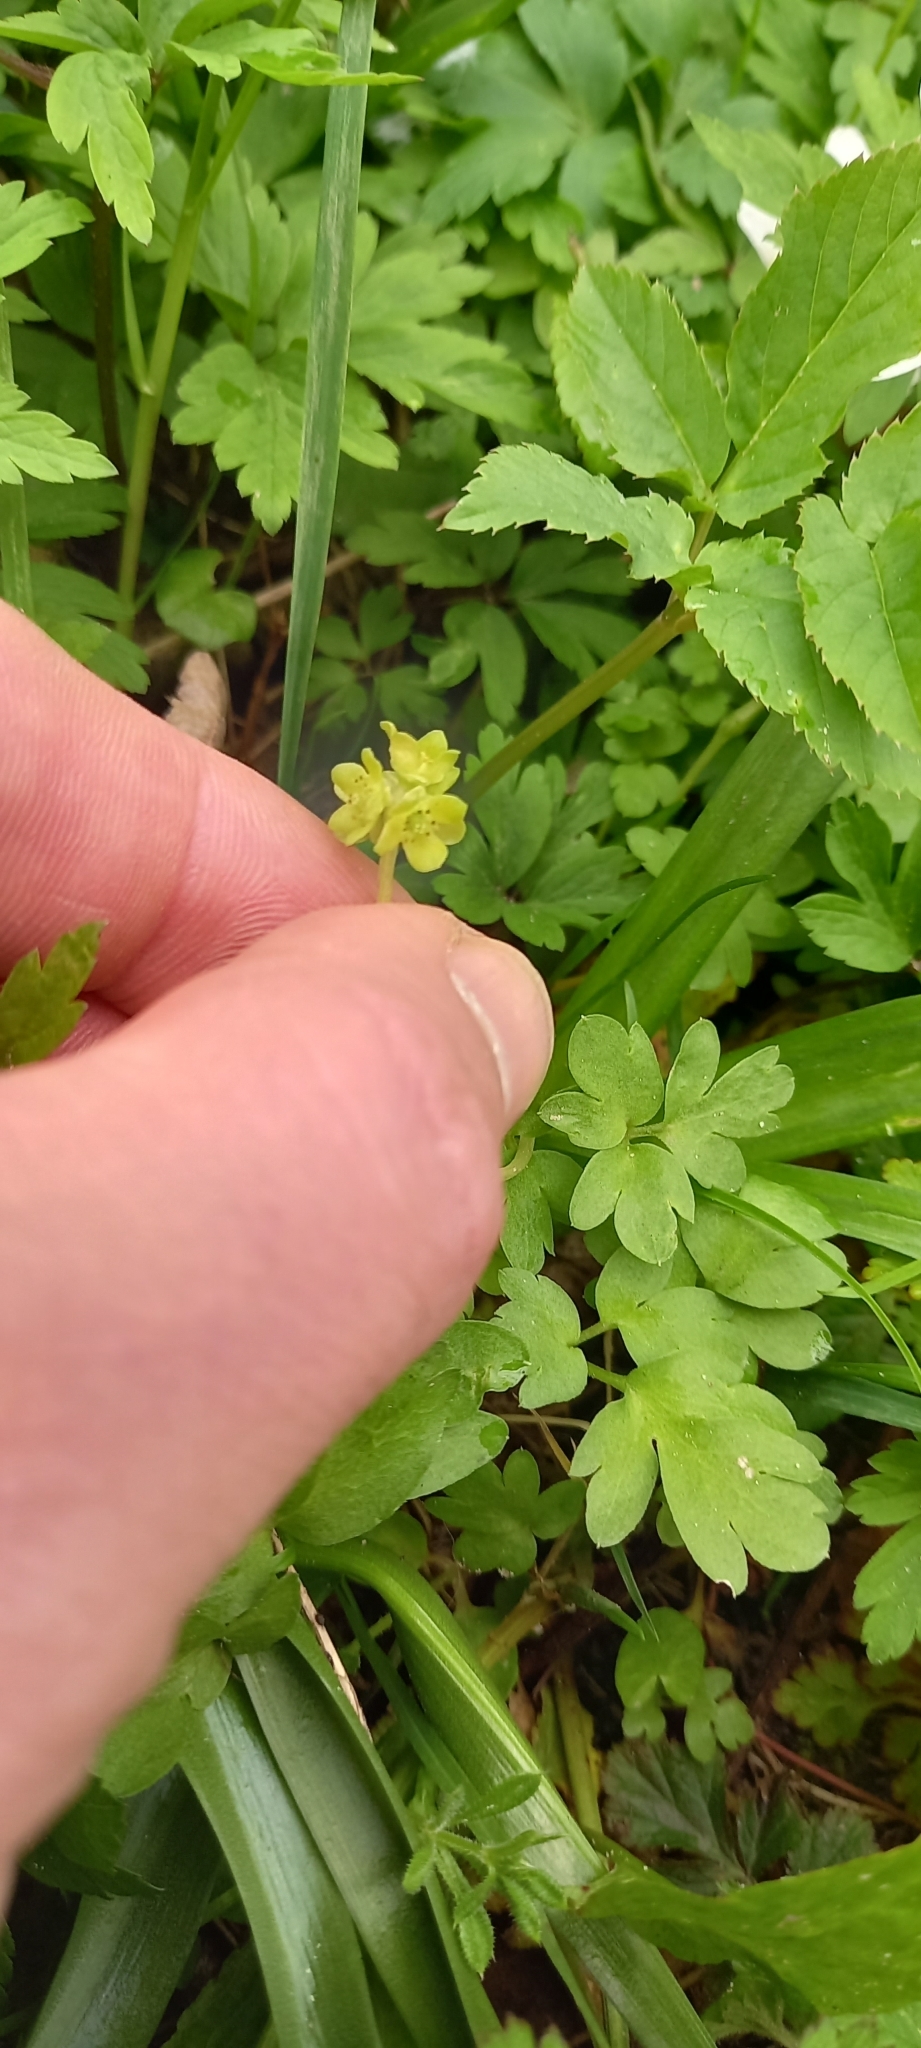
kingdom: Plantae
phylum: Tracheophyta
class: Magnoliopsida
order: Dipsacales
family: Viburnaceae
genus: Adoxa
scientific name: Adoxa moschatellina
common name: Moschatel
